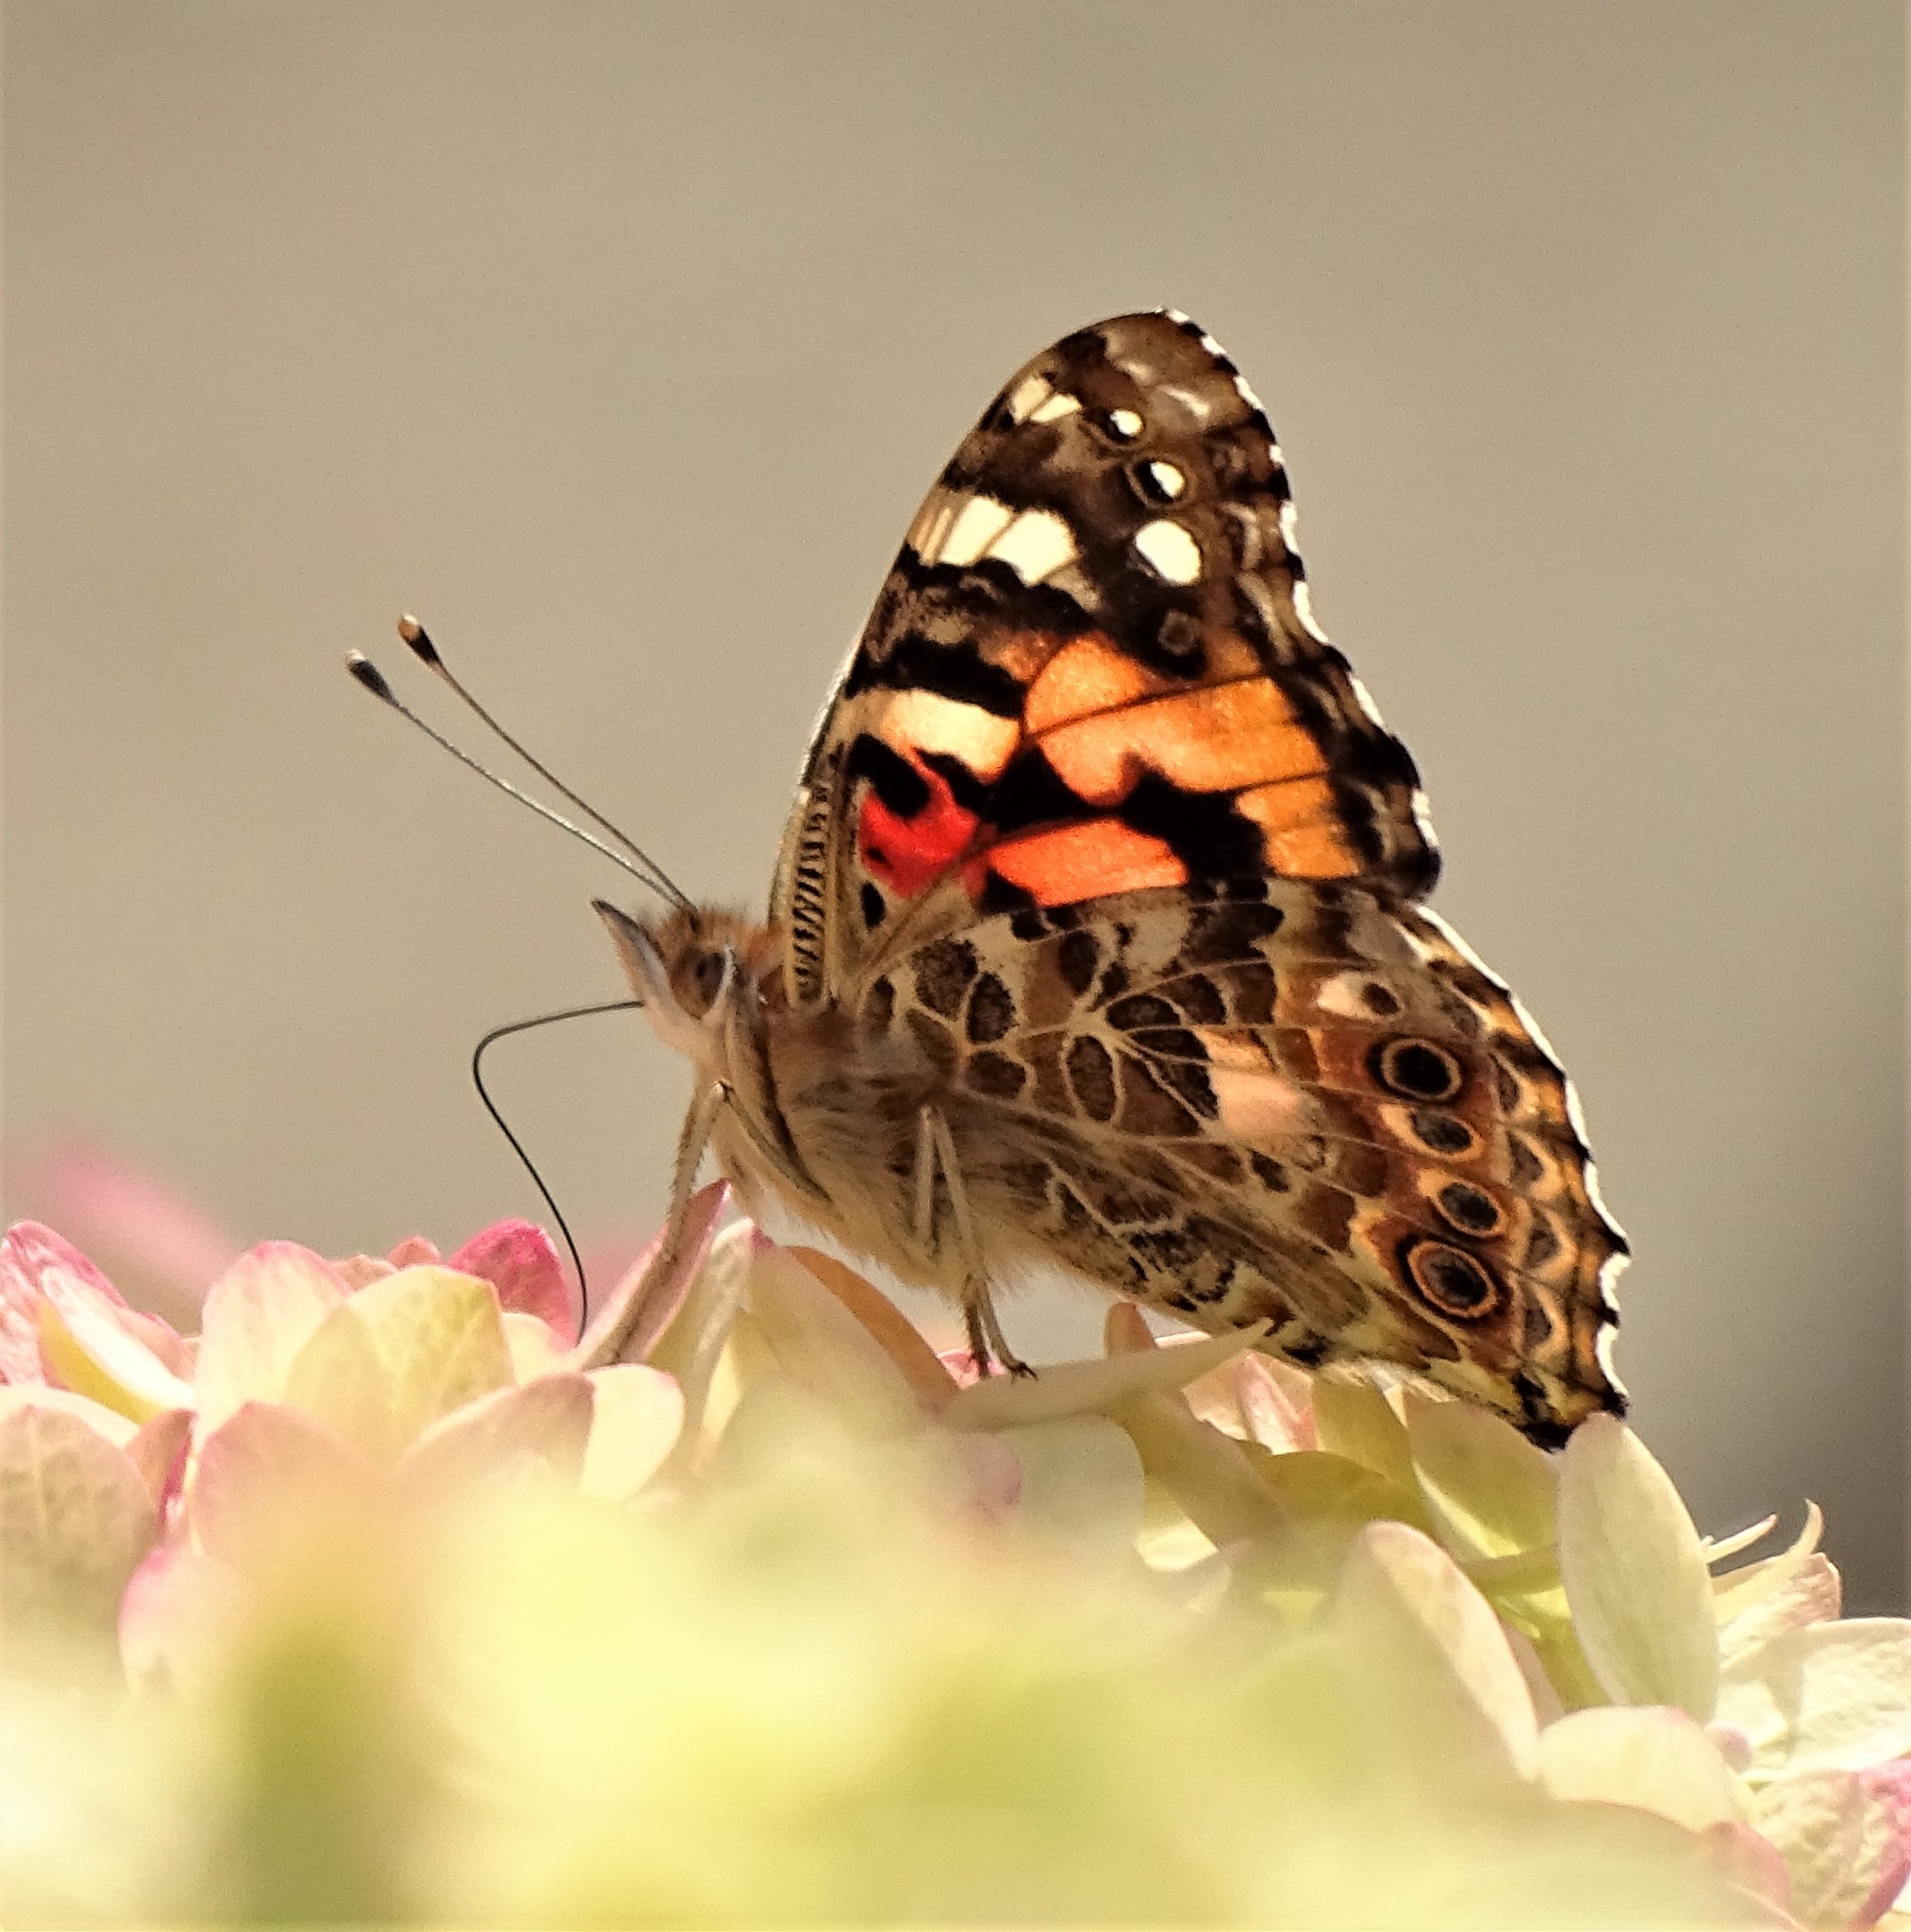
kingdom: Animalia
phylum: Arthropoda
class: Insecta
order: Lepidoptera
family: Nymphalidae
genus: Vanessa
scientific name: Vanessa cardui
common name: Painted lady
